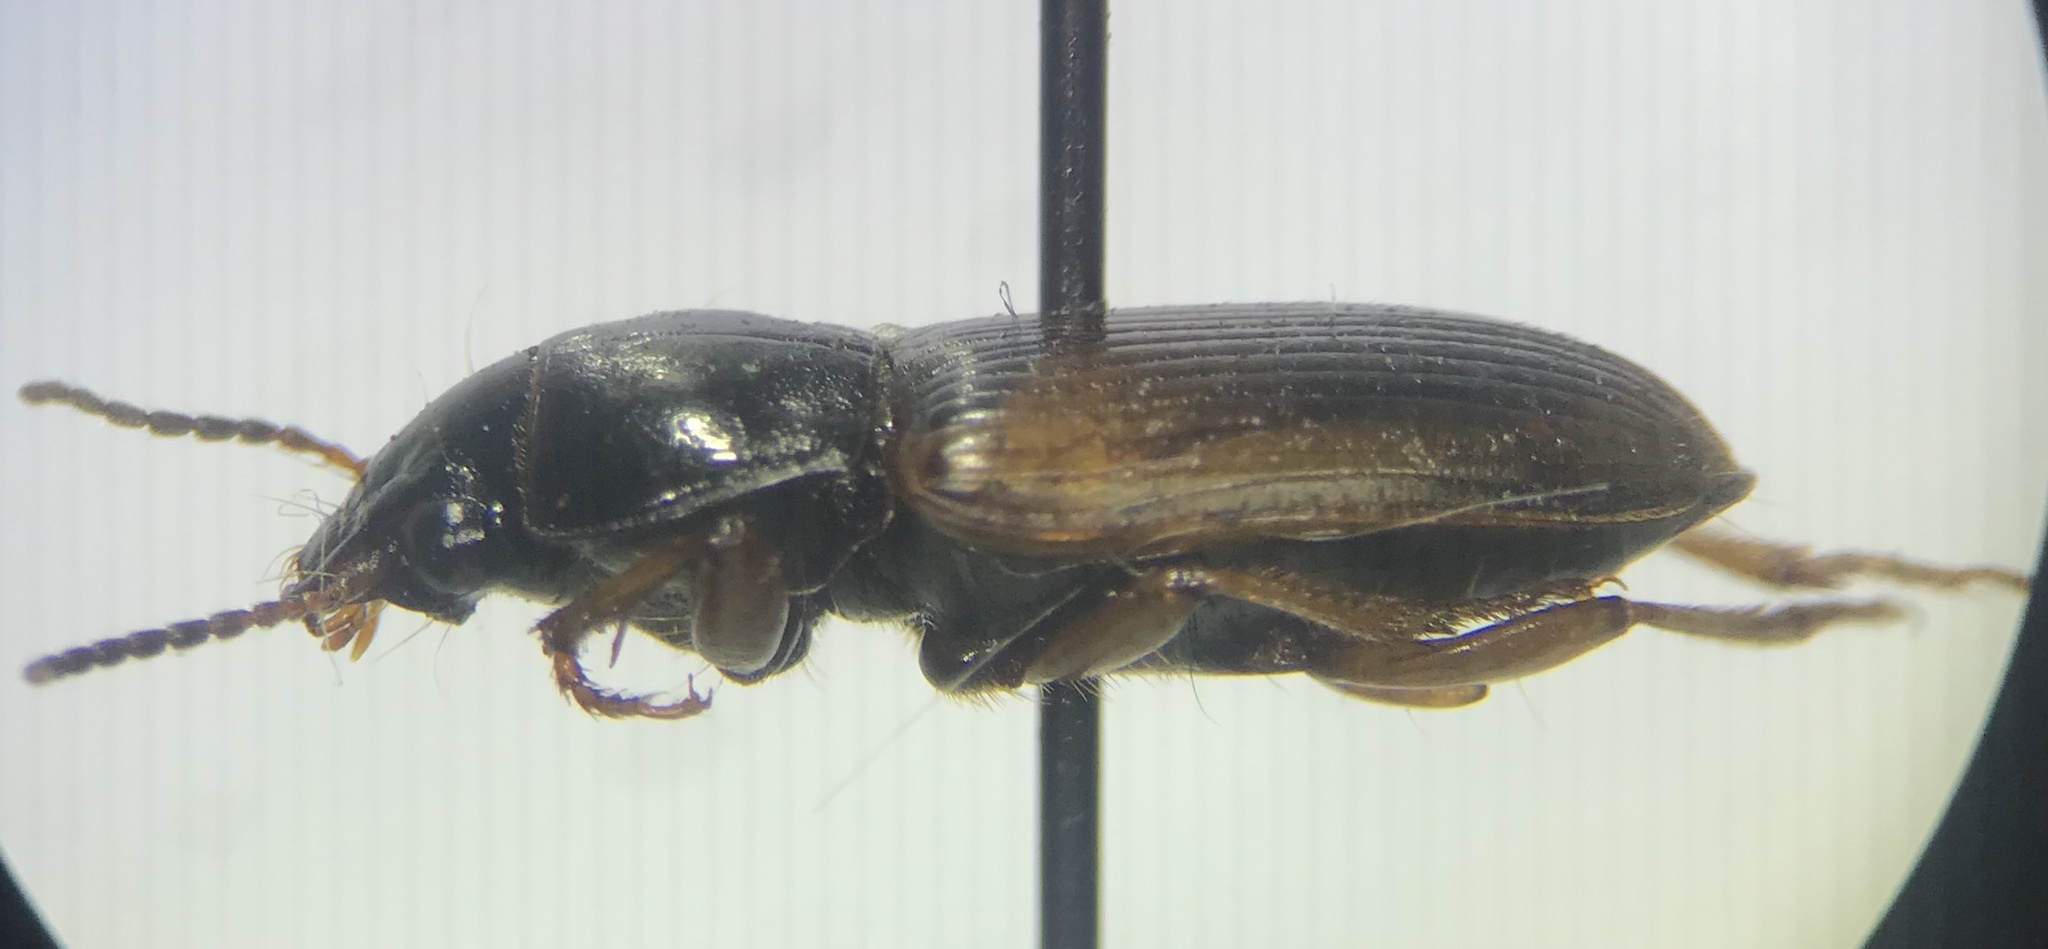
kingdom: Animalia
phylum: Arthropoda
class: Insecta
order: Coleoptera
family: Carabidae
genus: Anisodactylus
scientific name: Anisodactylus sanctaecrucis
